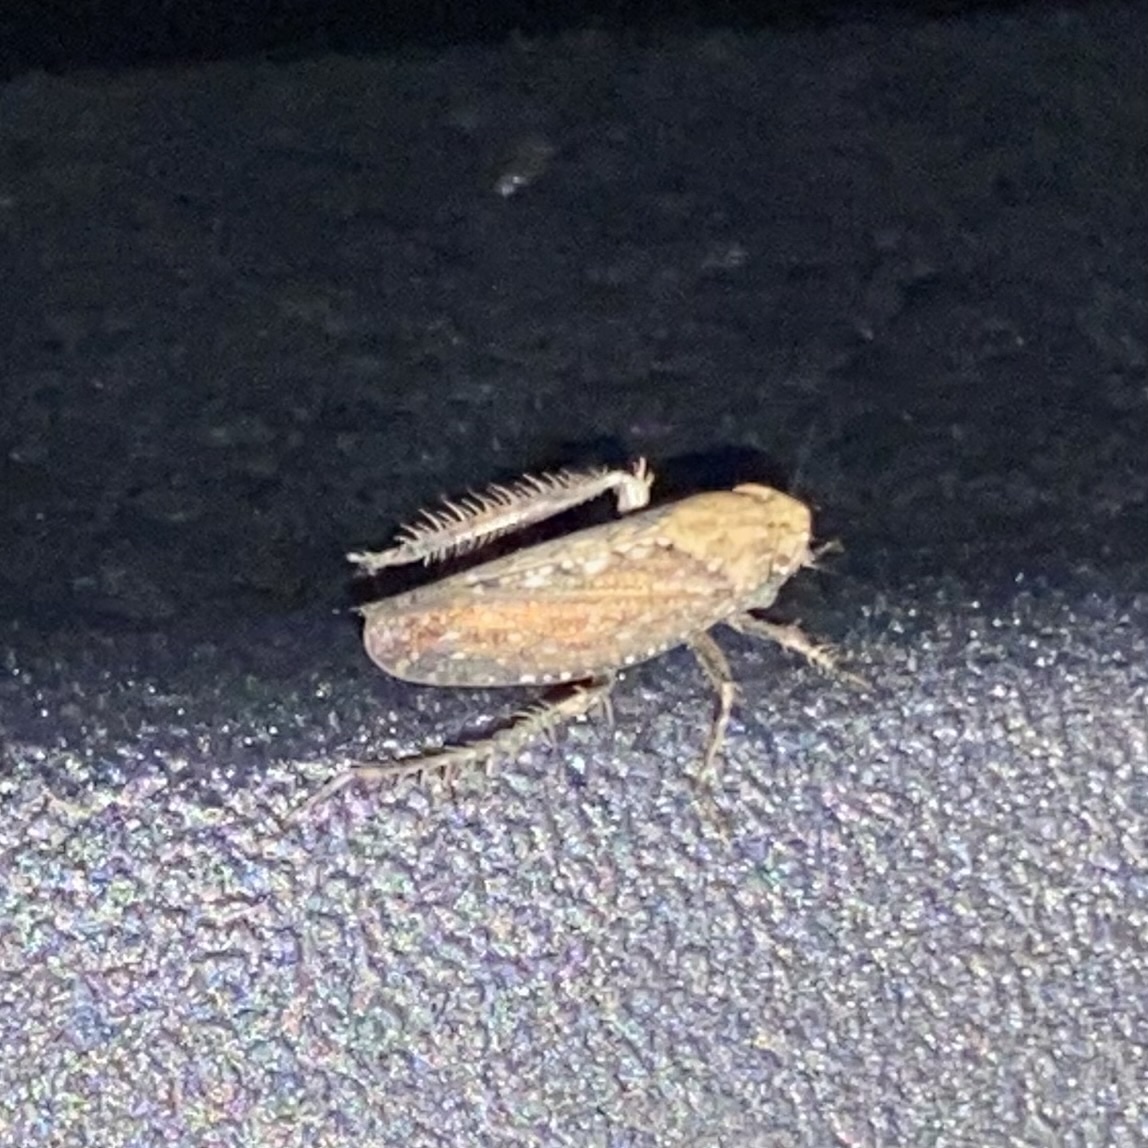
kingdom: Animalia
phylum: Arthropoda
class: Insecta
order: Hemiptera
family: Cicadellidae
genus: Excultanus
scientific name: Excultanus excultus
